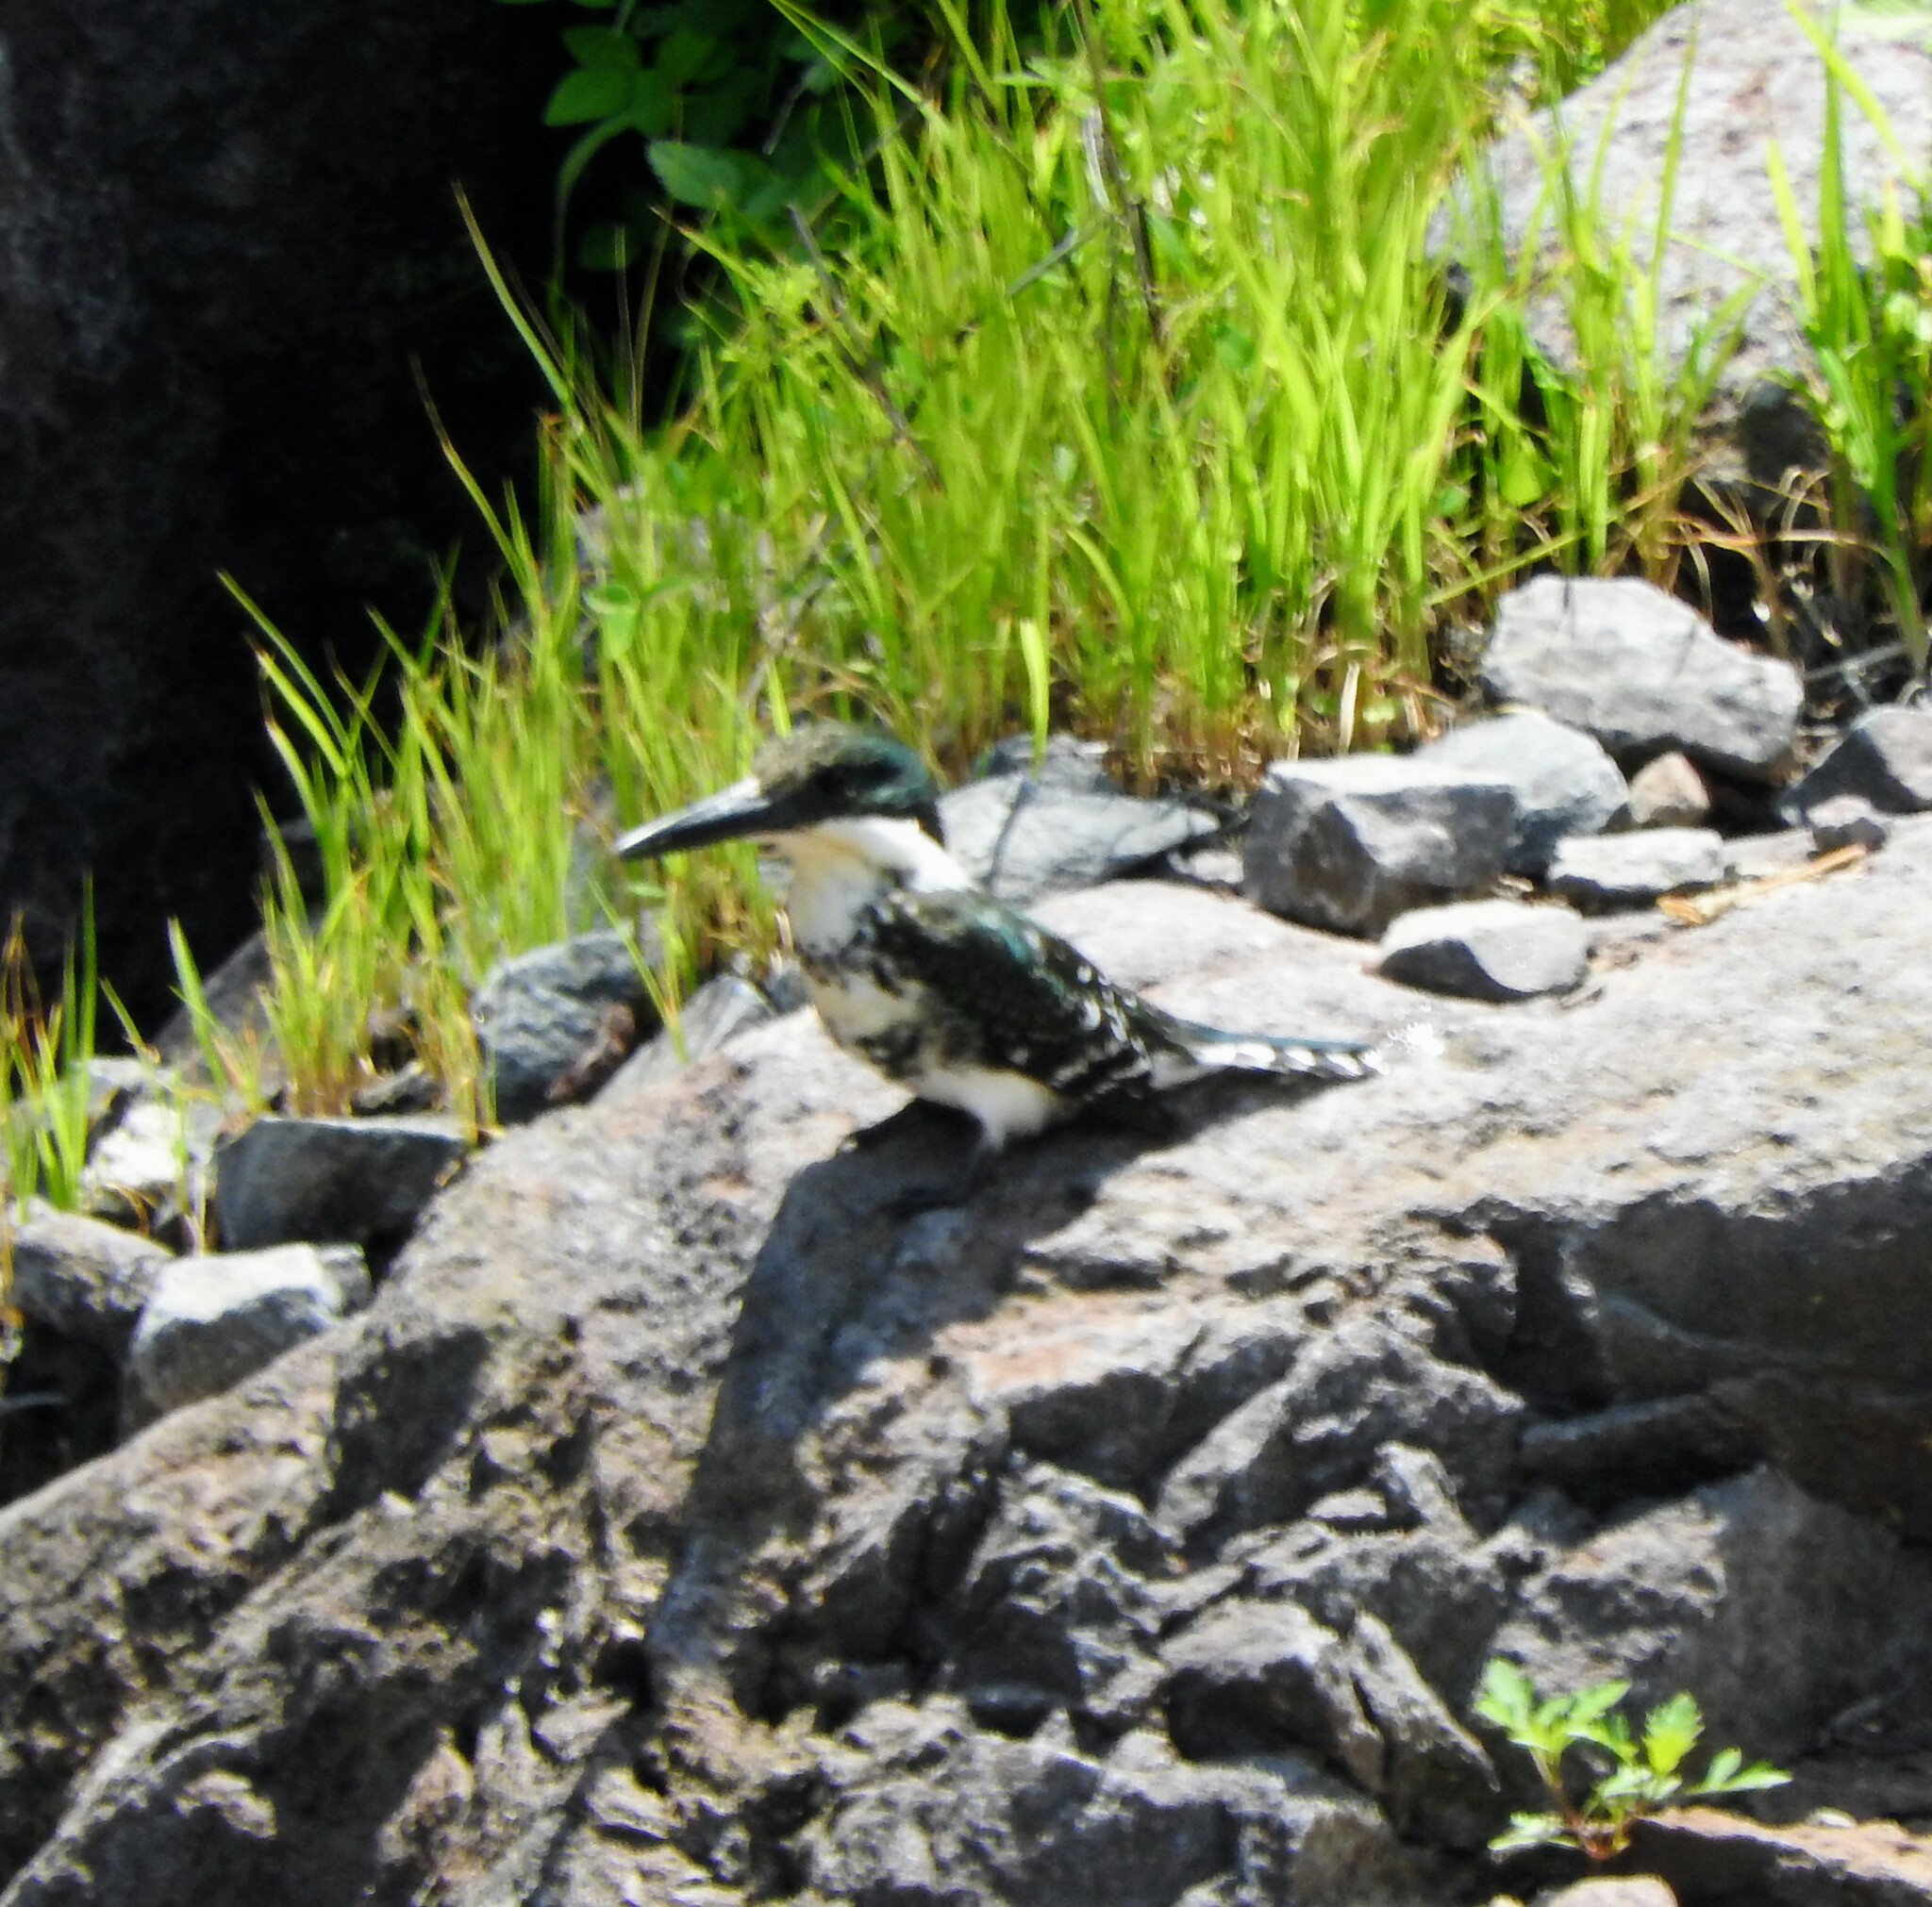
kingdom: Animalia
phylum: Chordata
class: Aves
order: Coraciiformes
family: Alcedinidae
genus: Chloroceryle
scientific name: Chloroceryle americana
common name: Green kingfisher
